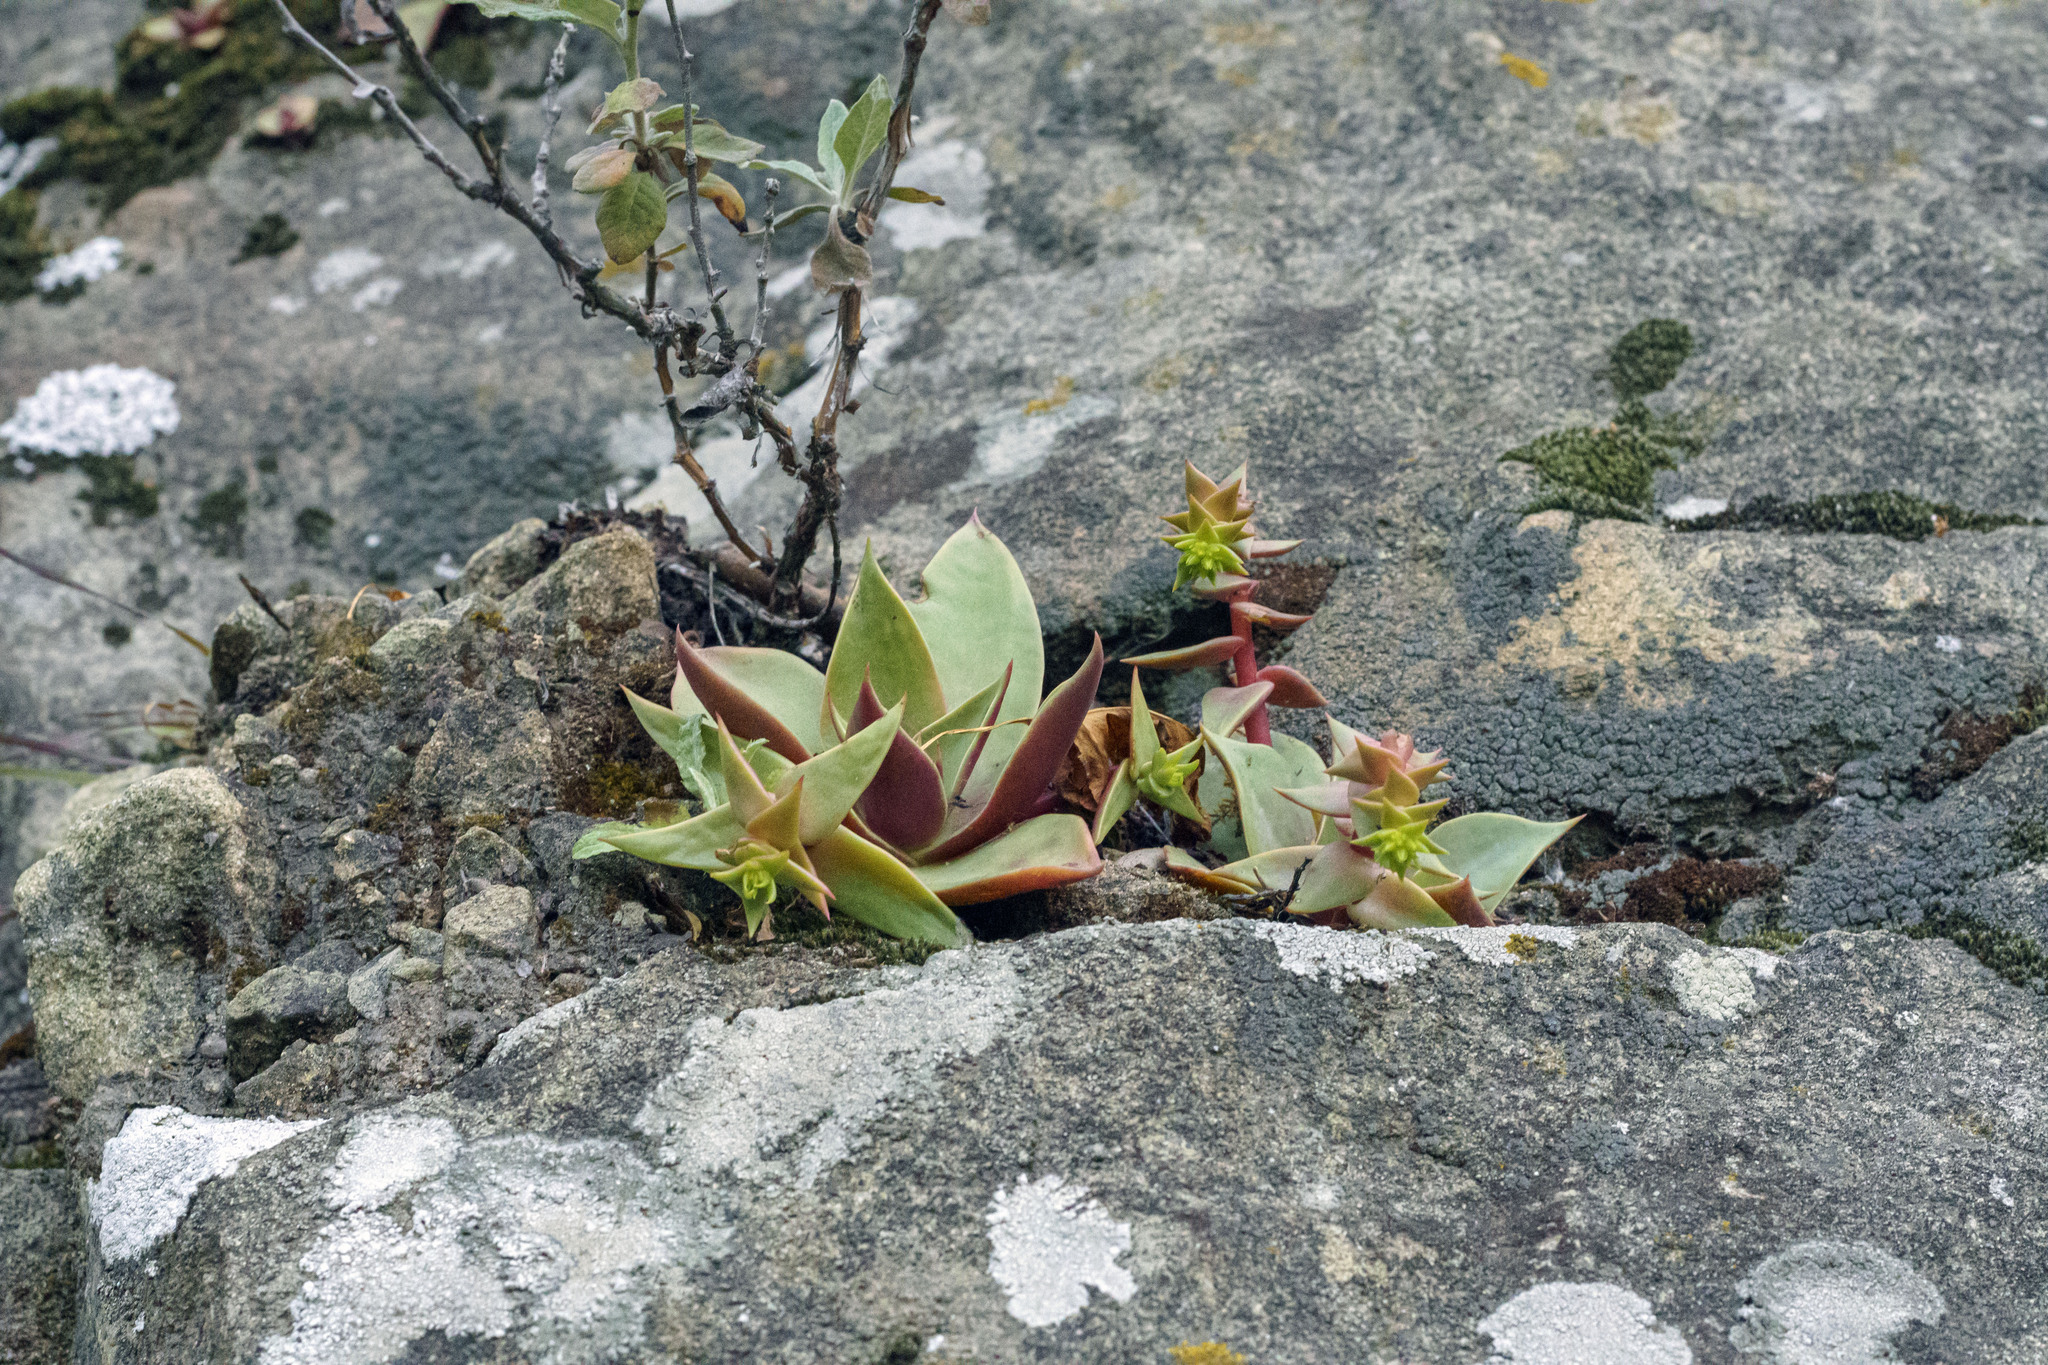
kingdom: Plantae
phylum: Tracheophyta
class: Magnoliopsida
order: Saxifragales
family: Crassulaceae
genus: Dudleya
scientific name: Dudleya cymosa
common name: Canyon dudleya
